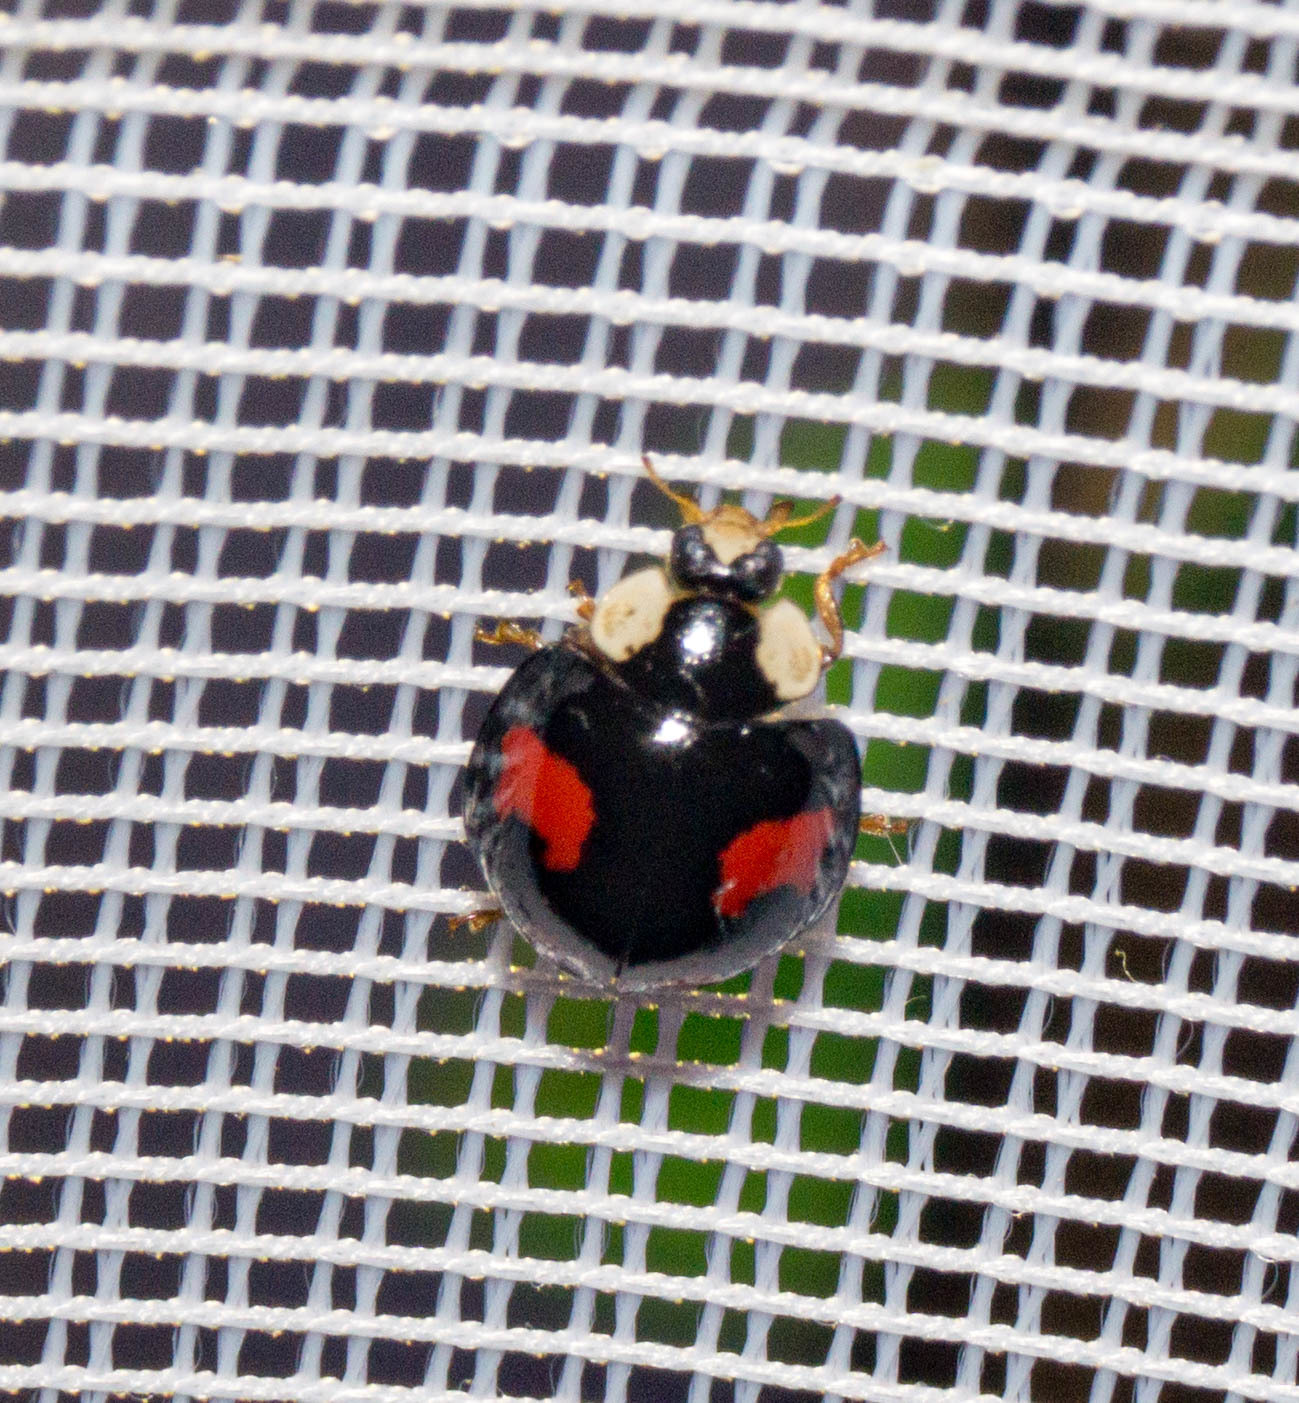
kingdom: Animalia
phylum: Arthropoda
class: Insecta
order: Coleoptera
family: Coccinellidae
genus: Harmonia
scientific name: Harmonia axyridis
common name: Harlequin ladybird
